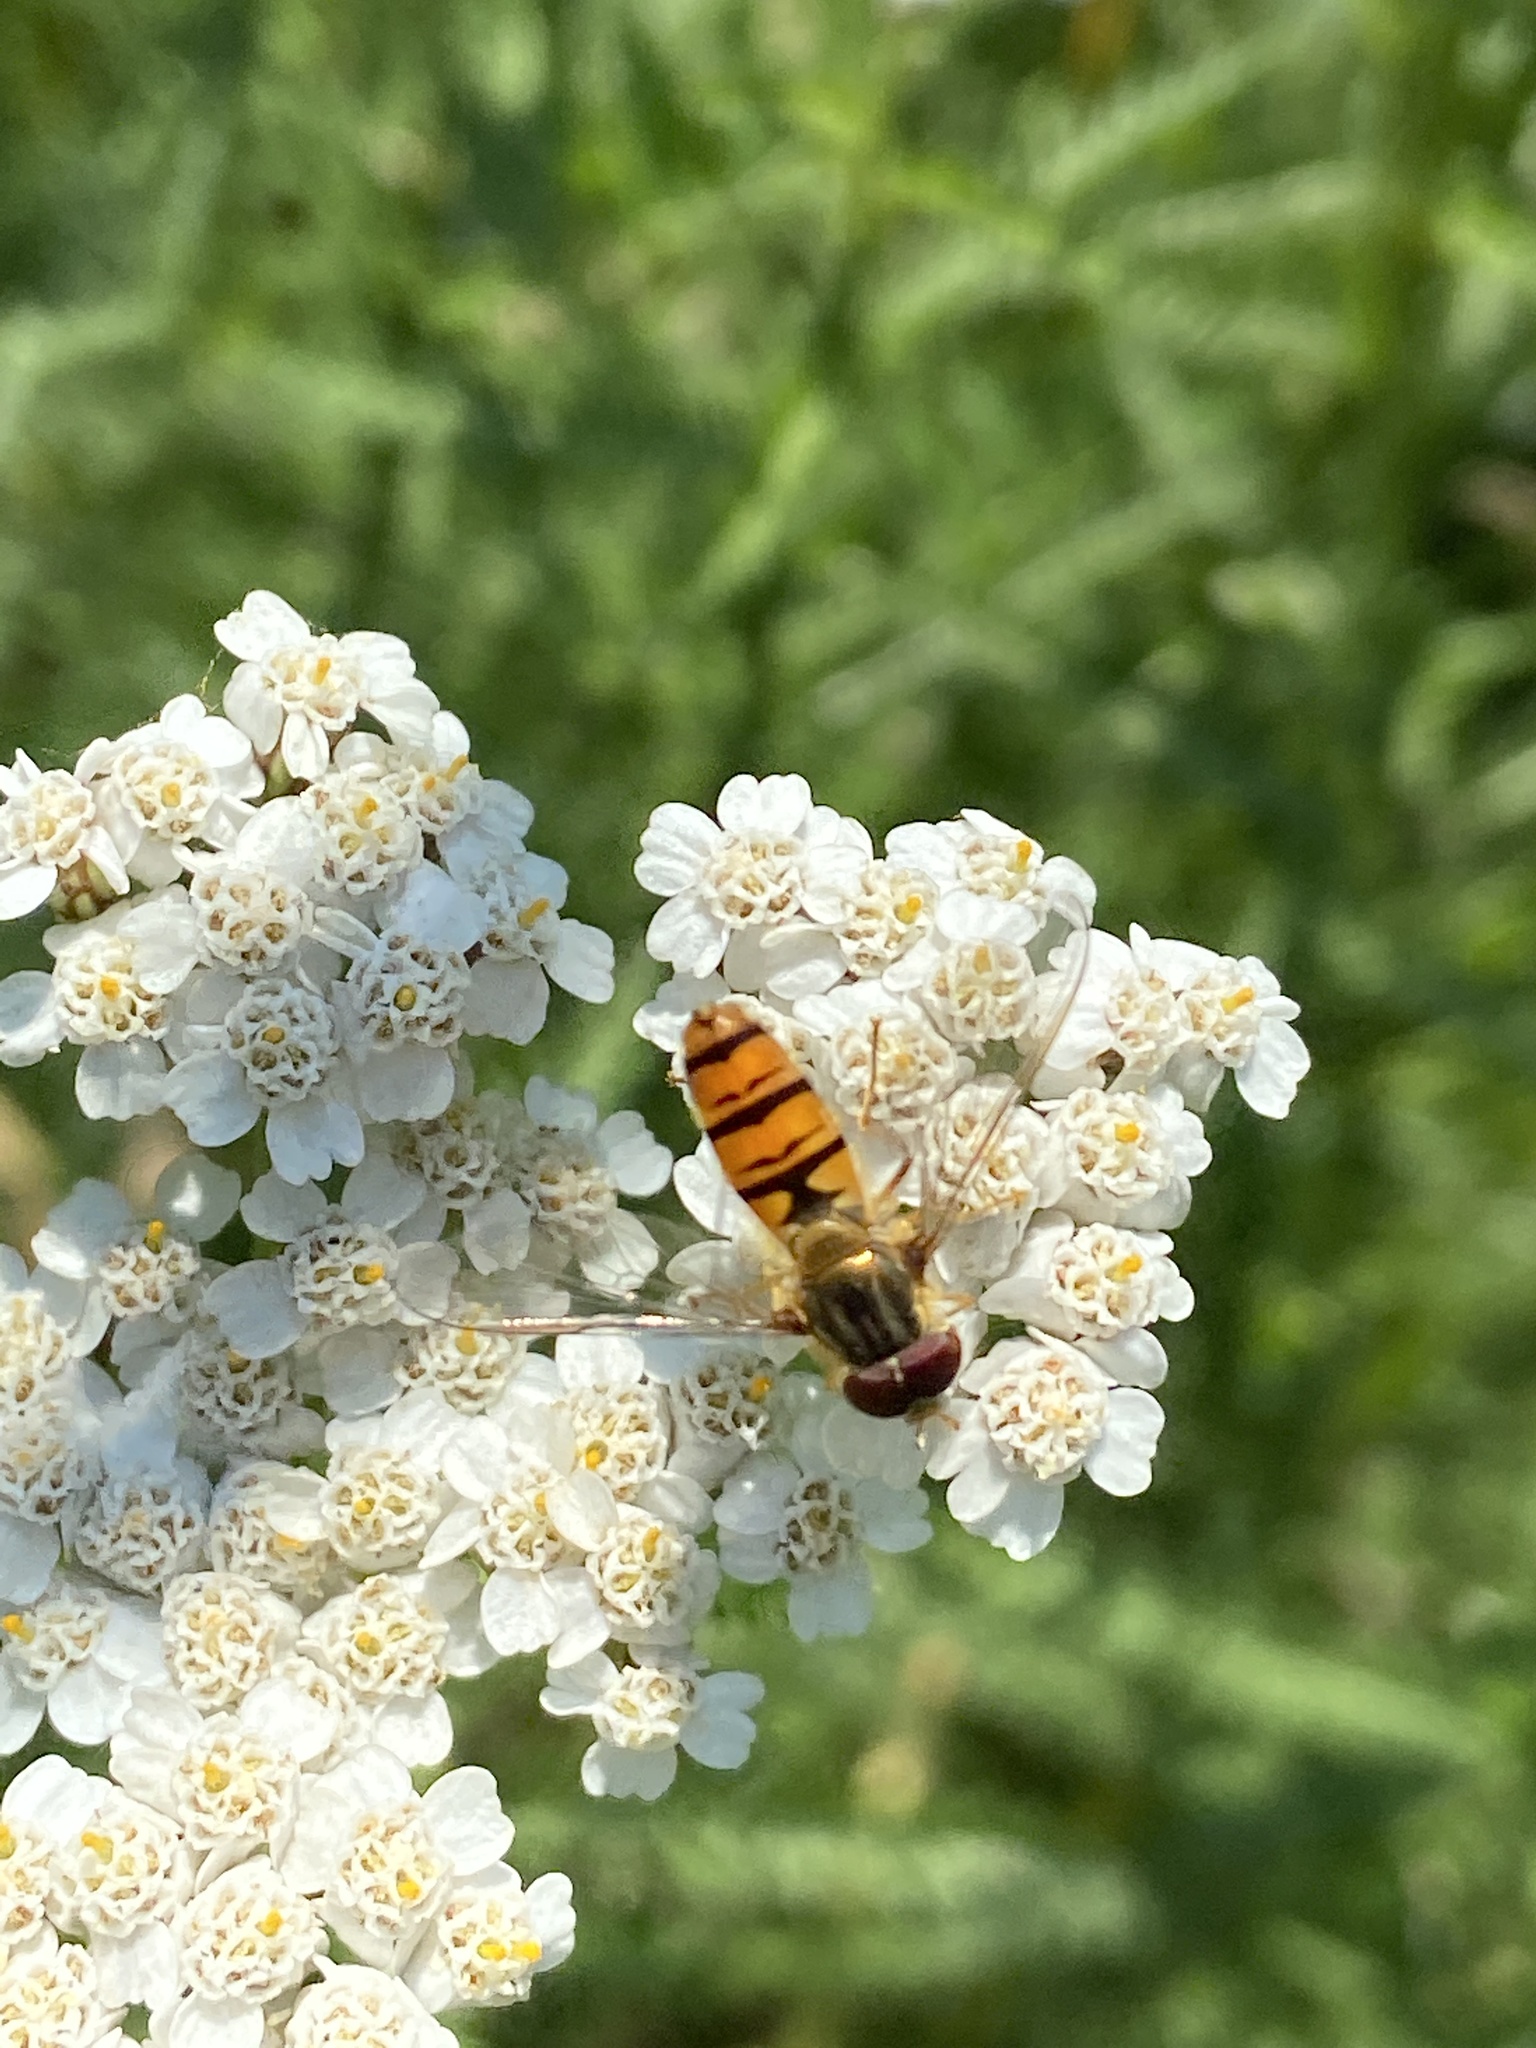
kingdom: Animalia
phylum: Arthropoda
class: Insecta
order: Diptera
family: Syrphidae
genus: Episyrphus
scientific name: Episyrphus balteatus
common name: Marmalade hoverfly
